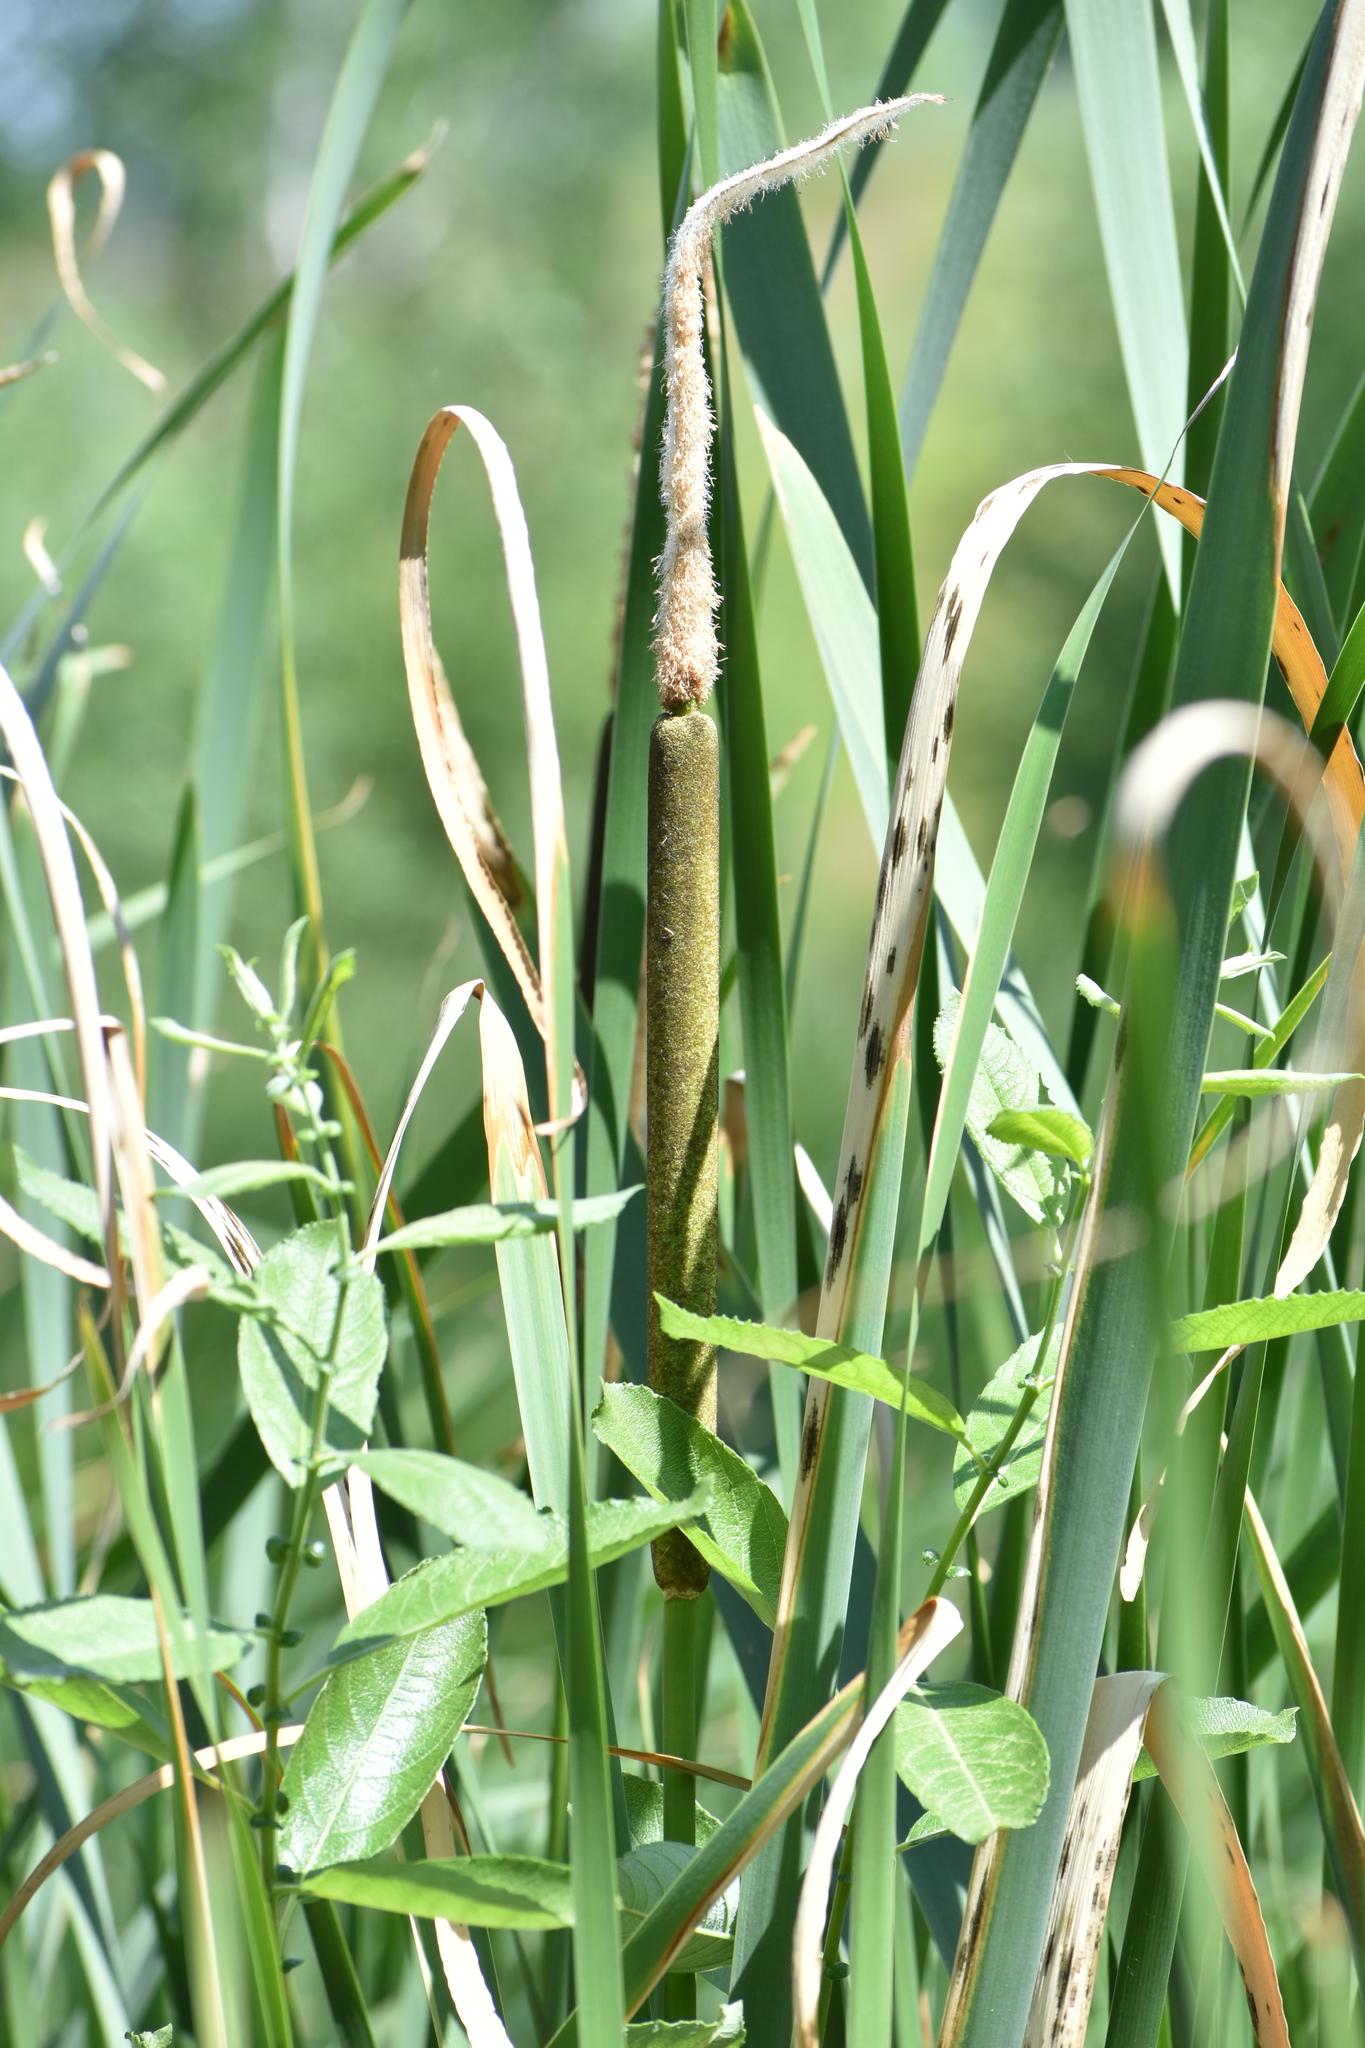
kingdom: Plantae
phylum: Tracheophyta
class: Liliopsida
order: Poales
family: Typhaceae
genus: Typha
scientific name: Typha latifolia
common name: Broadleaf cattail
